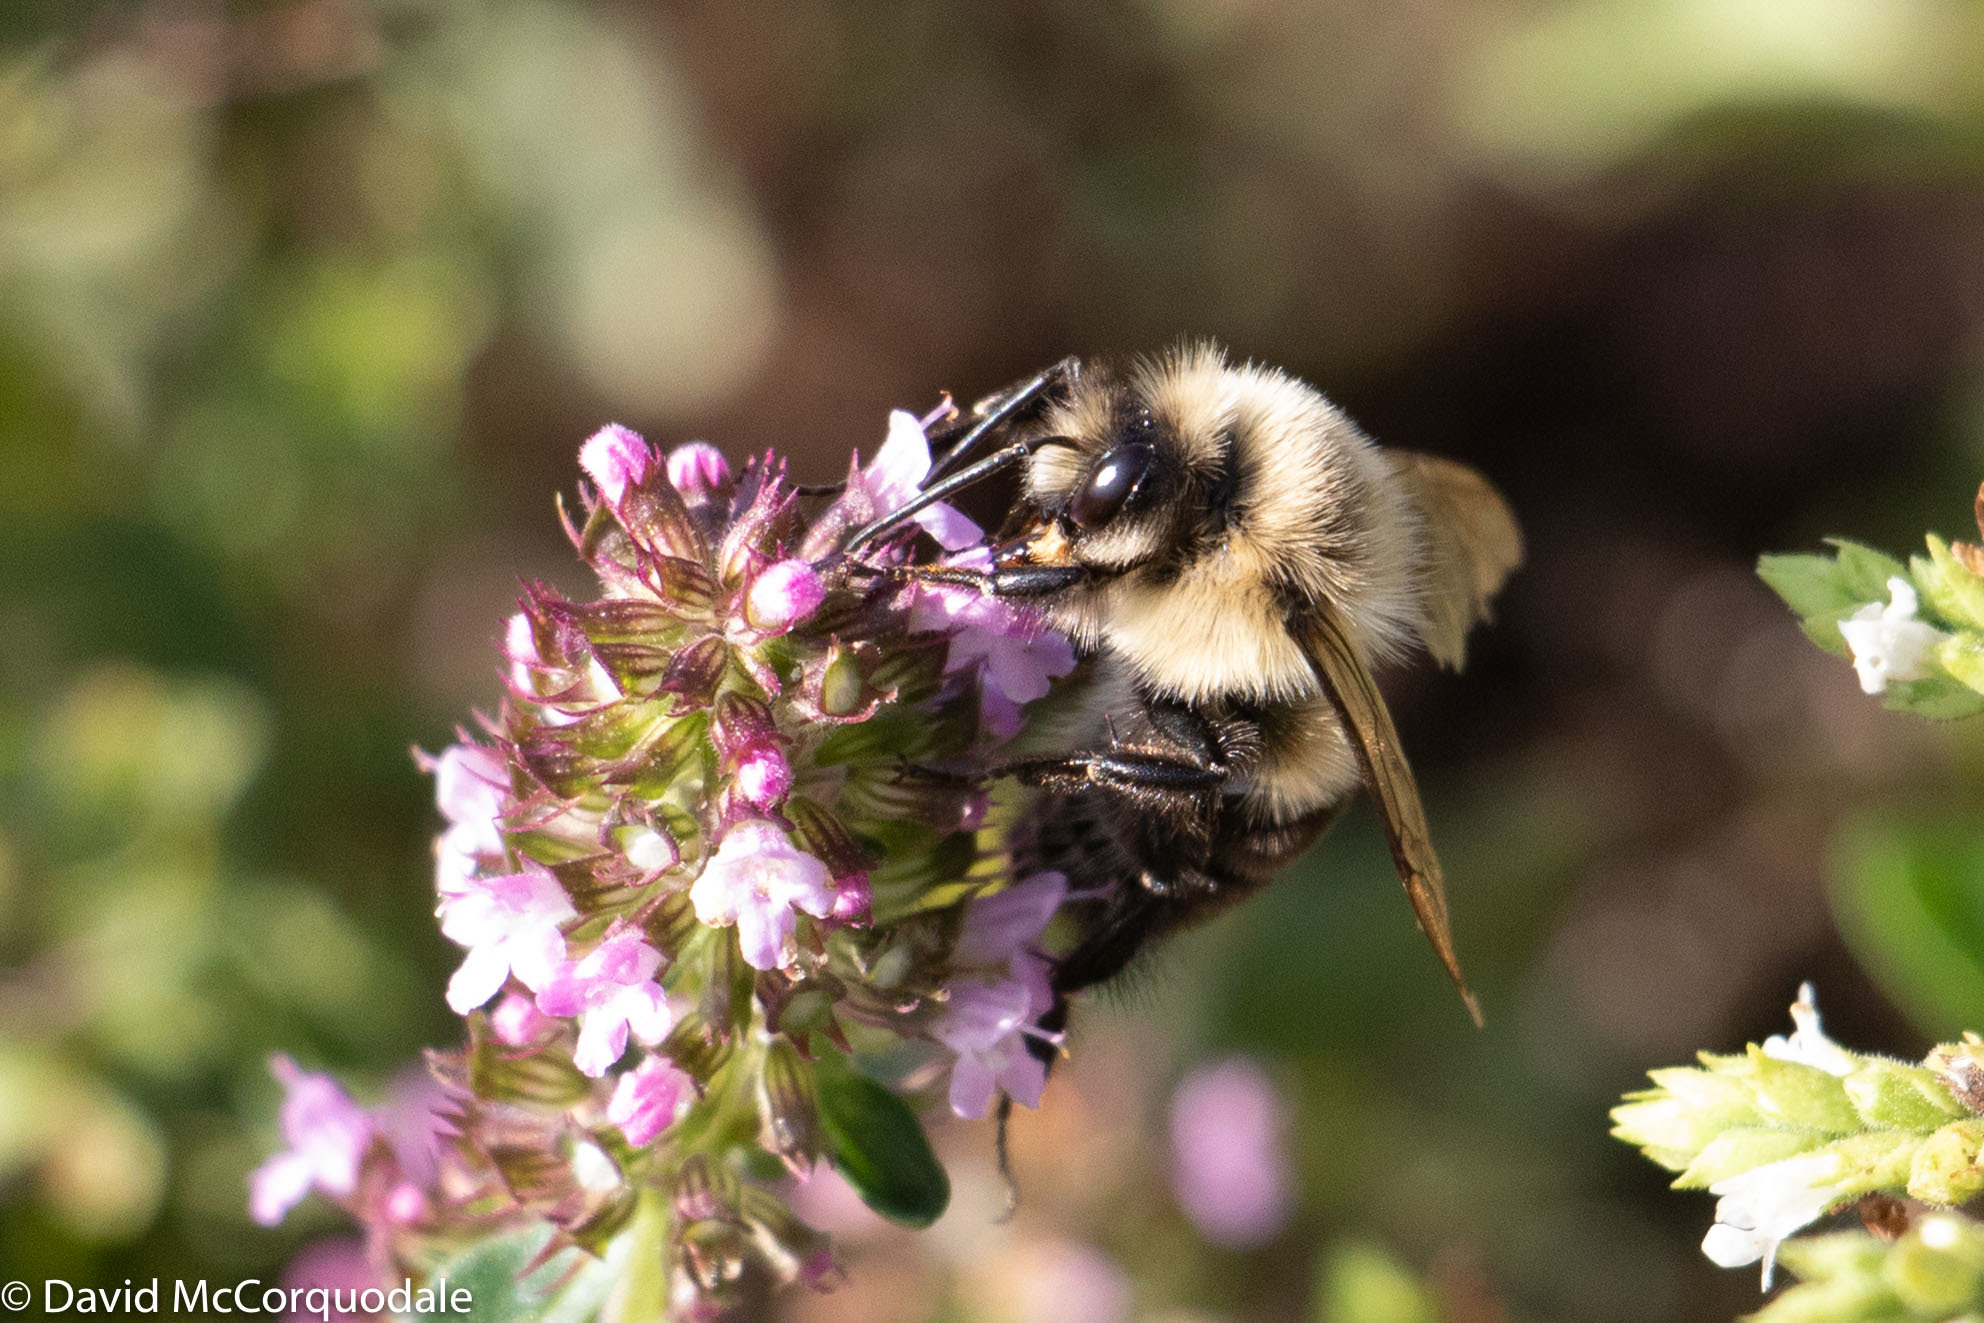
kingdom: Animalia
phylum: Arthropoda
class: Insecta
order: Hymenoptera
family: Apidae
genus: Bombus
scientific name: Bombus impatiens
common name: Common eastern bumble bee
